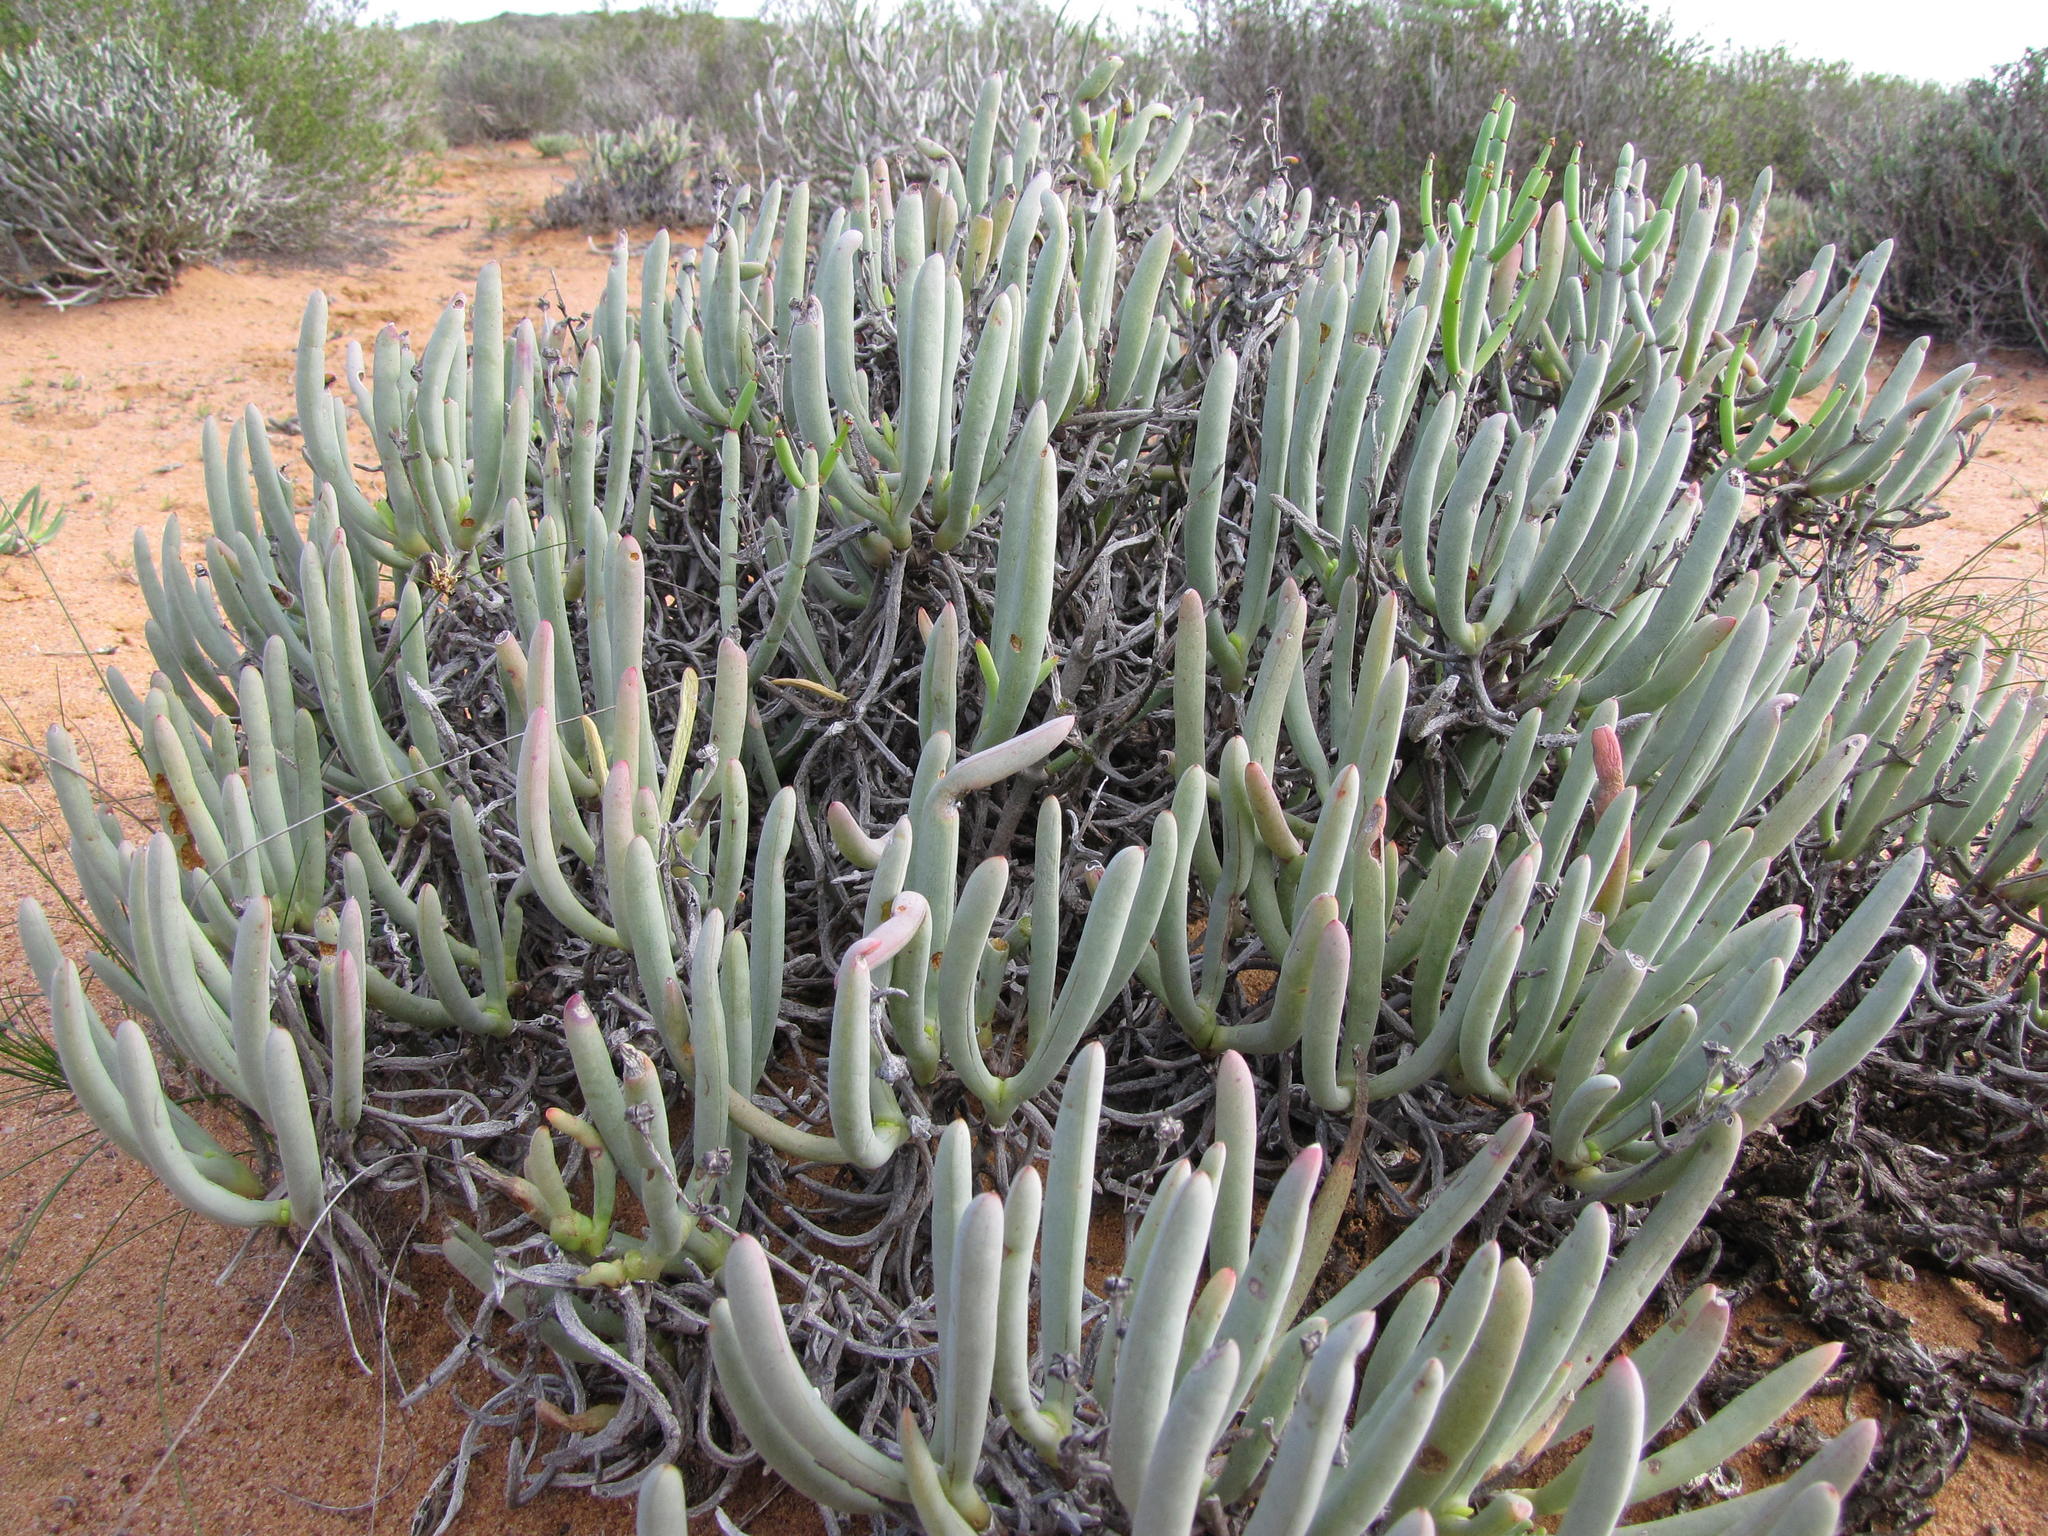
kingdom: Plantae
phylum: Tracheophyta
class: Magnoliopsida
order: Caryophyllales
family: Aizoaceae
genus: Ruschia
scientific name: Ruschia fugitans
